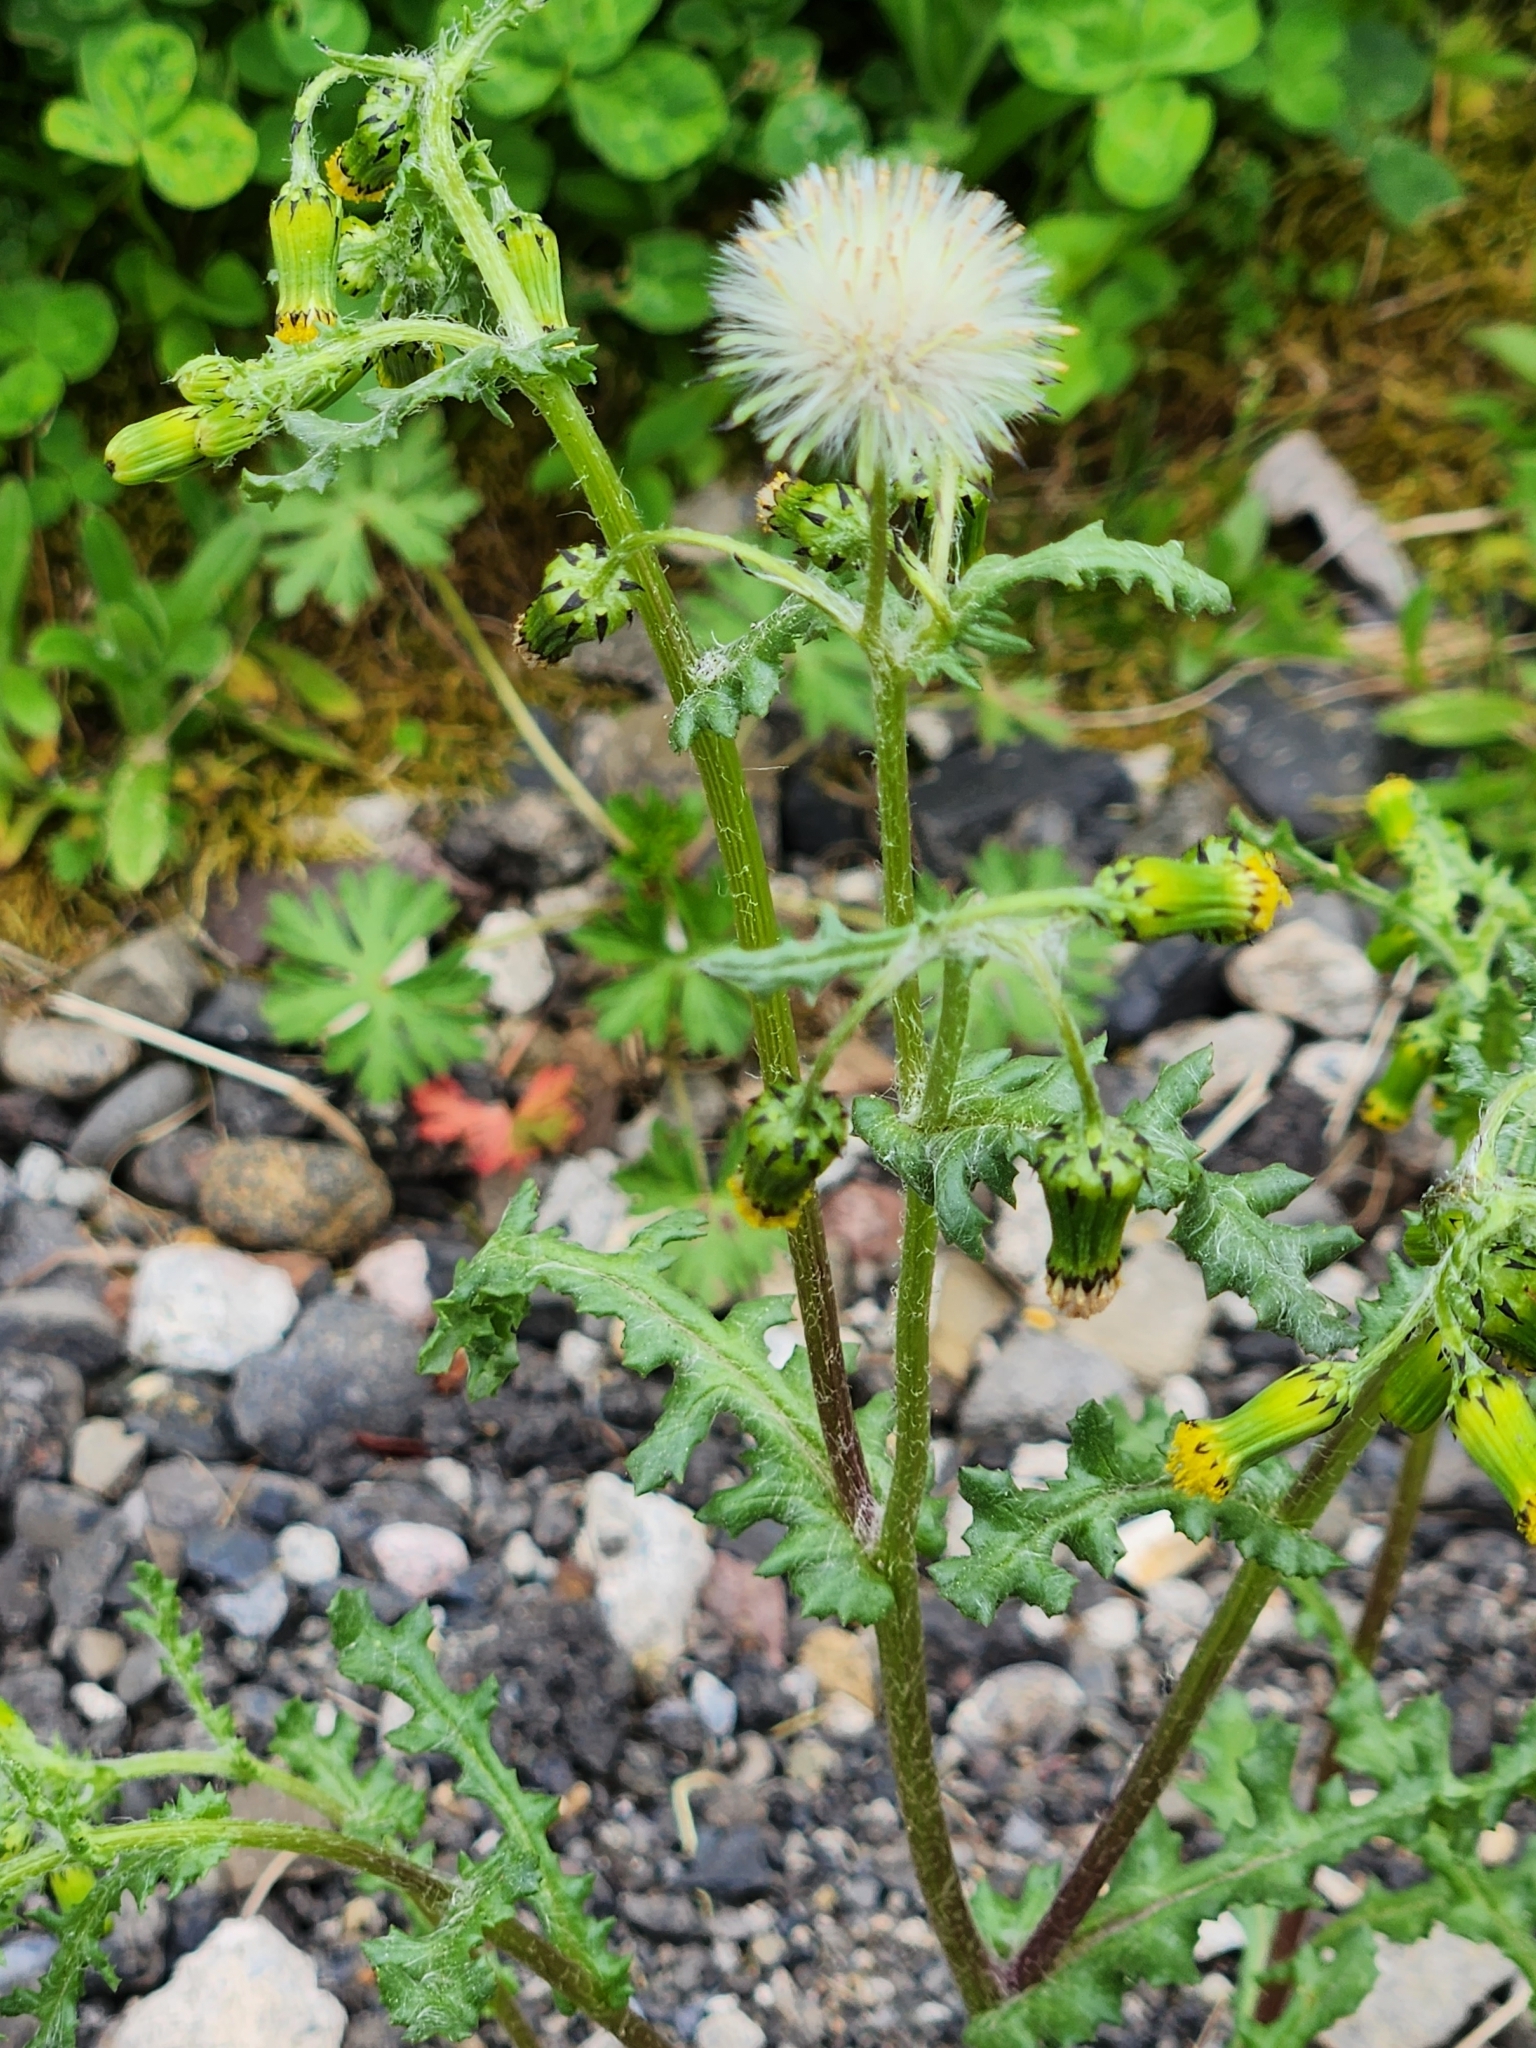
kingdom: Plantae
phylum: Tracheophyta
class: Magnoliopsida
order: Asterales
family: Asteraceae
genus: Senecio
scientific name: Senecio vulgaris
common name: Old-man-in-the-spring
